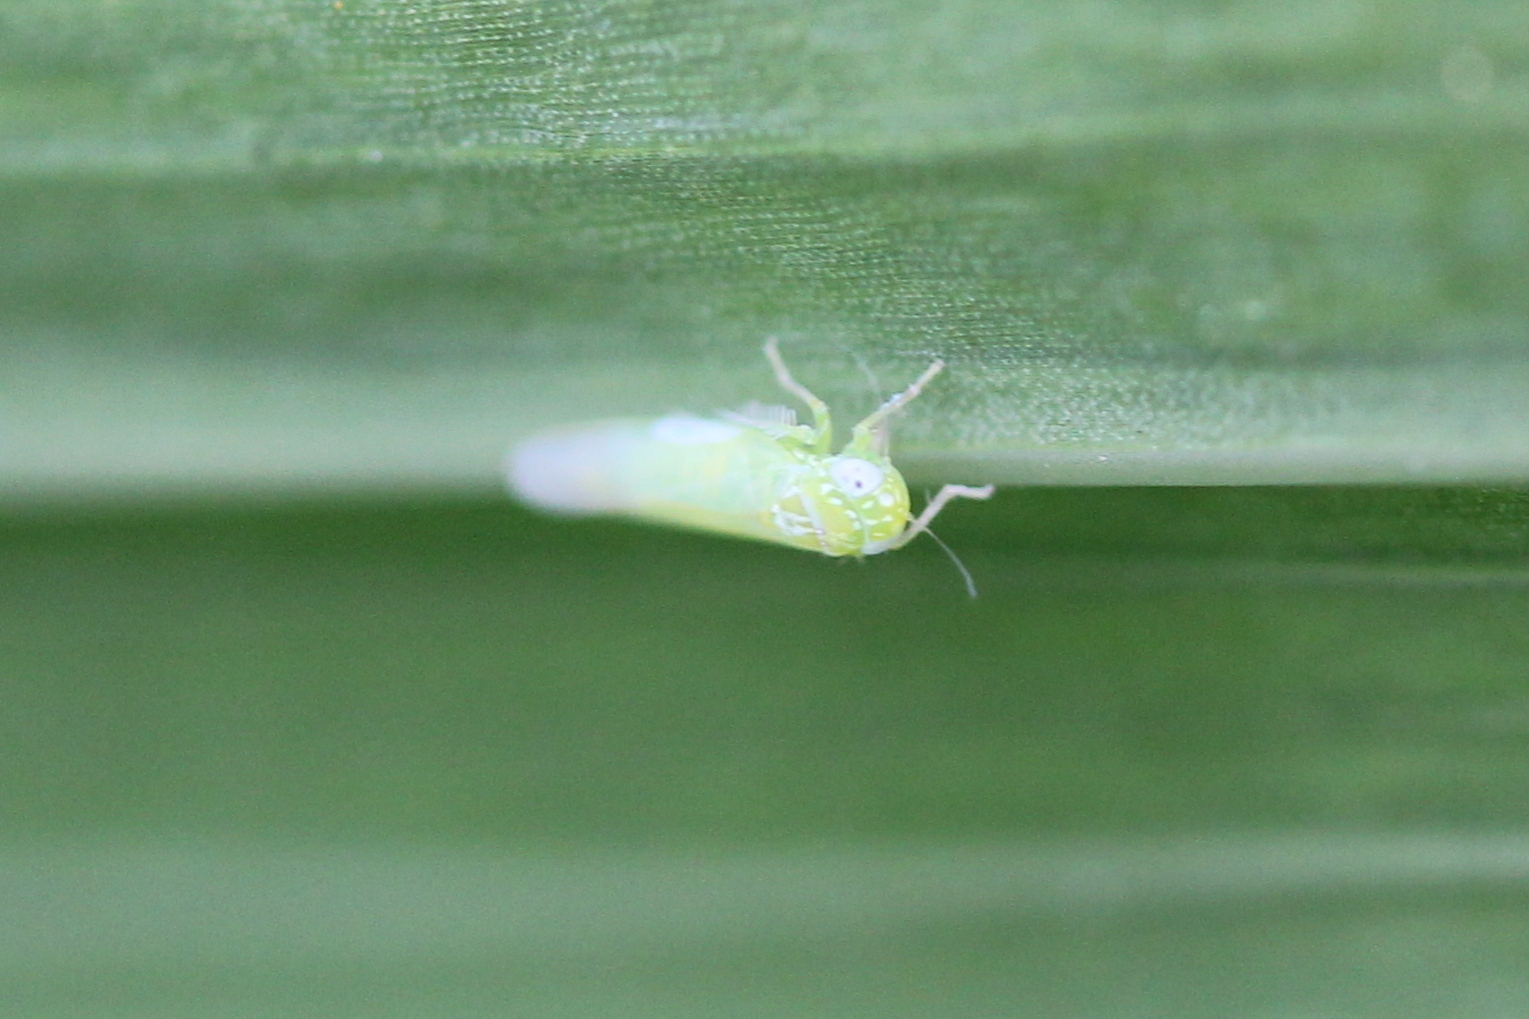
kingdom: Animalia
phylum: Arthropoda
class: Insecta
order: Hemiptera
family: Cicadellidae
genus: Empoasca
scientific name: Empoasca fabae
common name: Potato leafhopper
